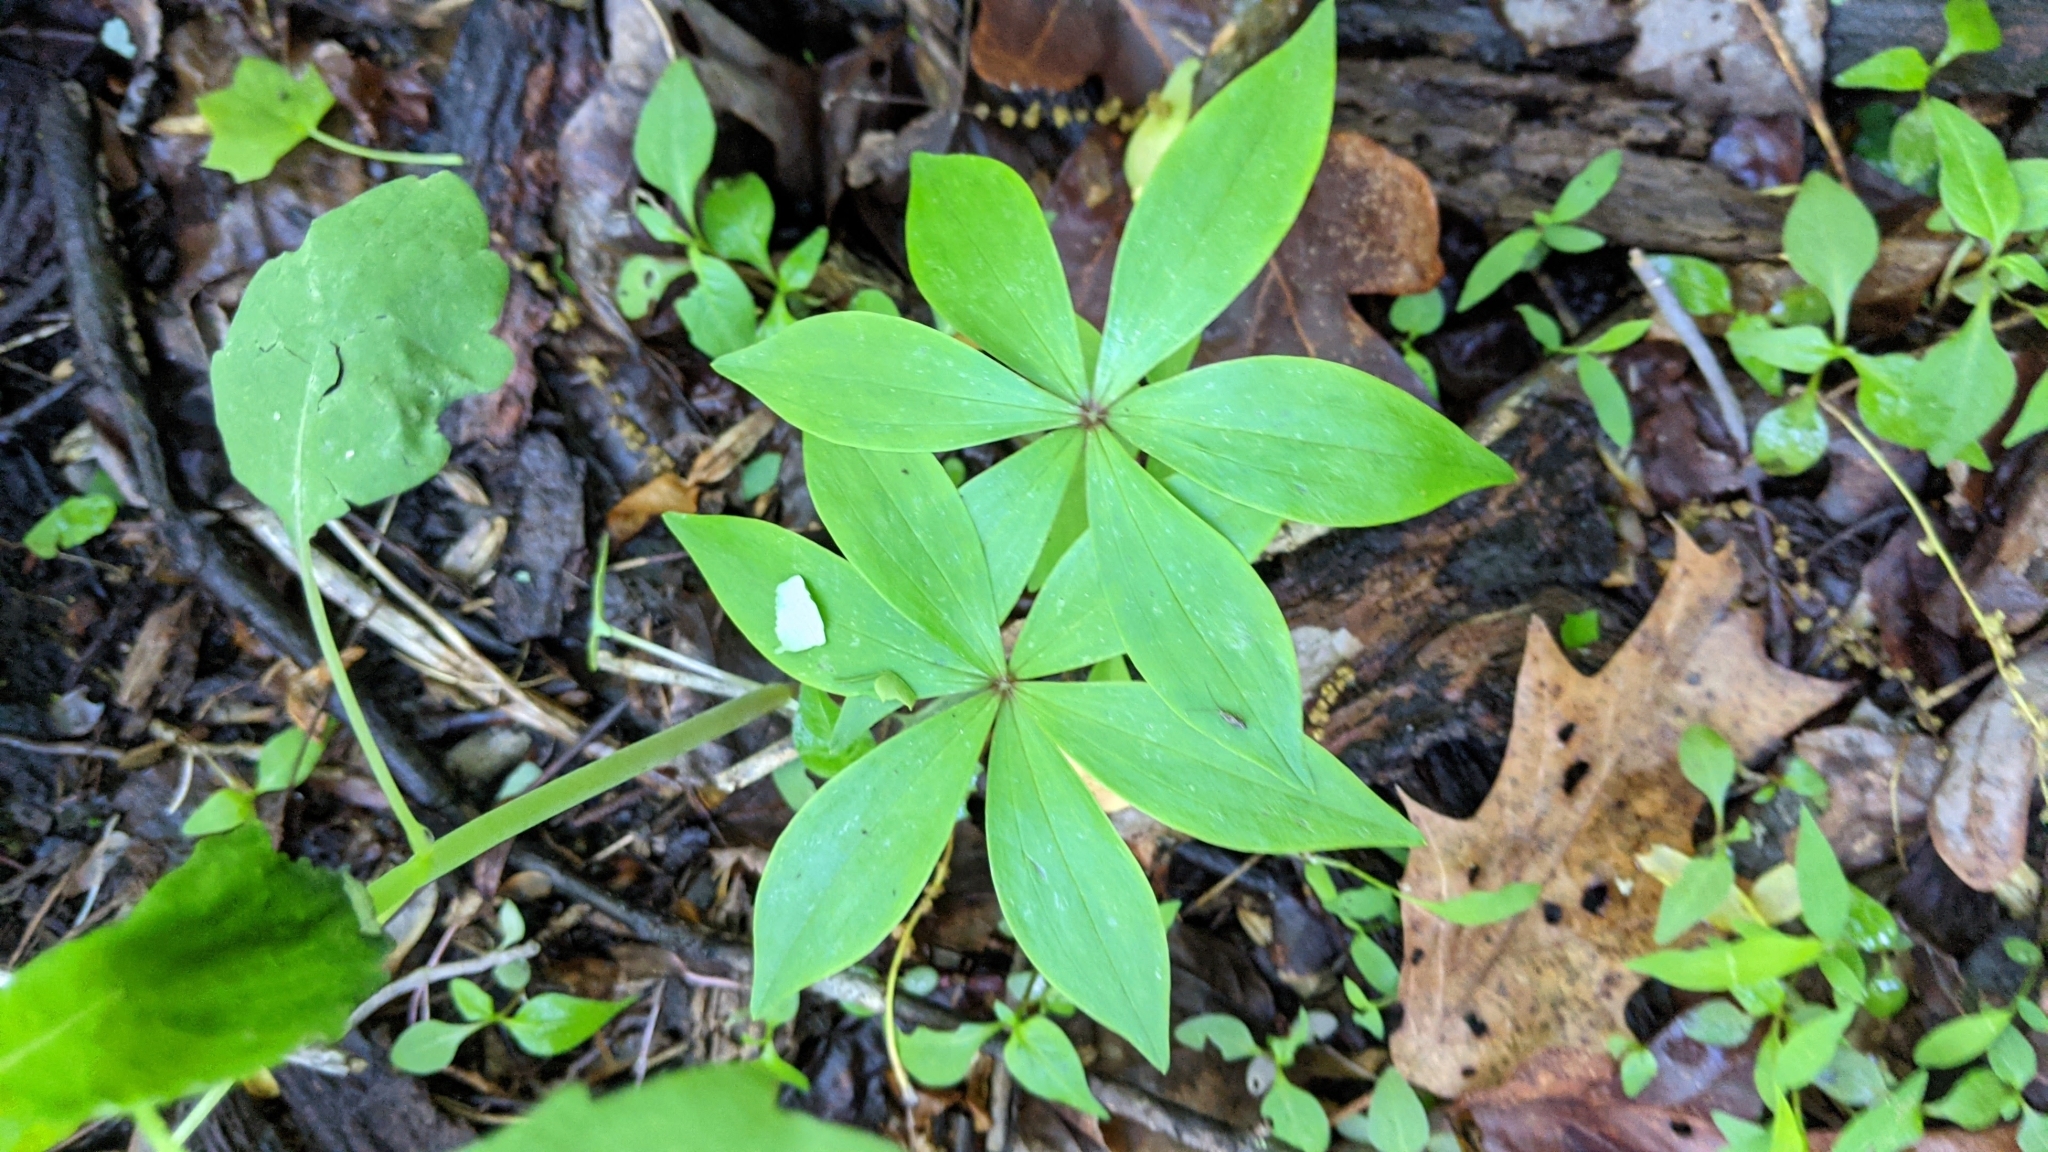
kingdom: Plantae
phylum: Tracheophyta
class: Liliopsida
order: Liliales
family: Liliaceae
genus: Medeola
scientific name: Medeola virginiana
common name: Indian cucumber-root
